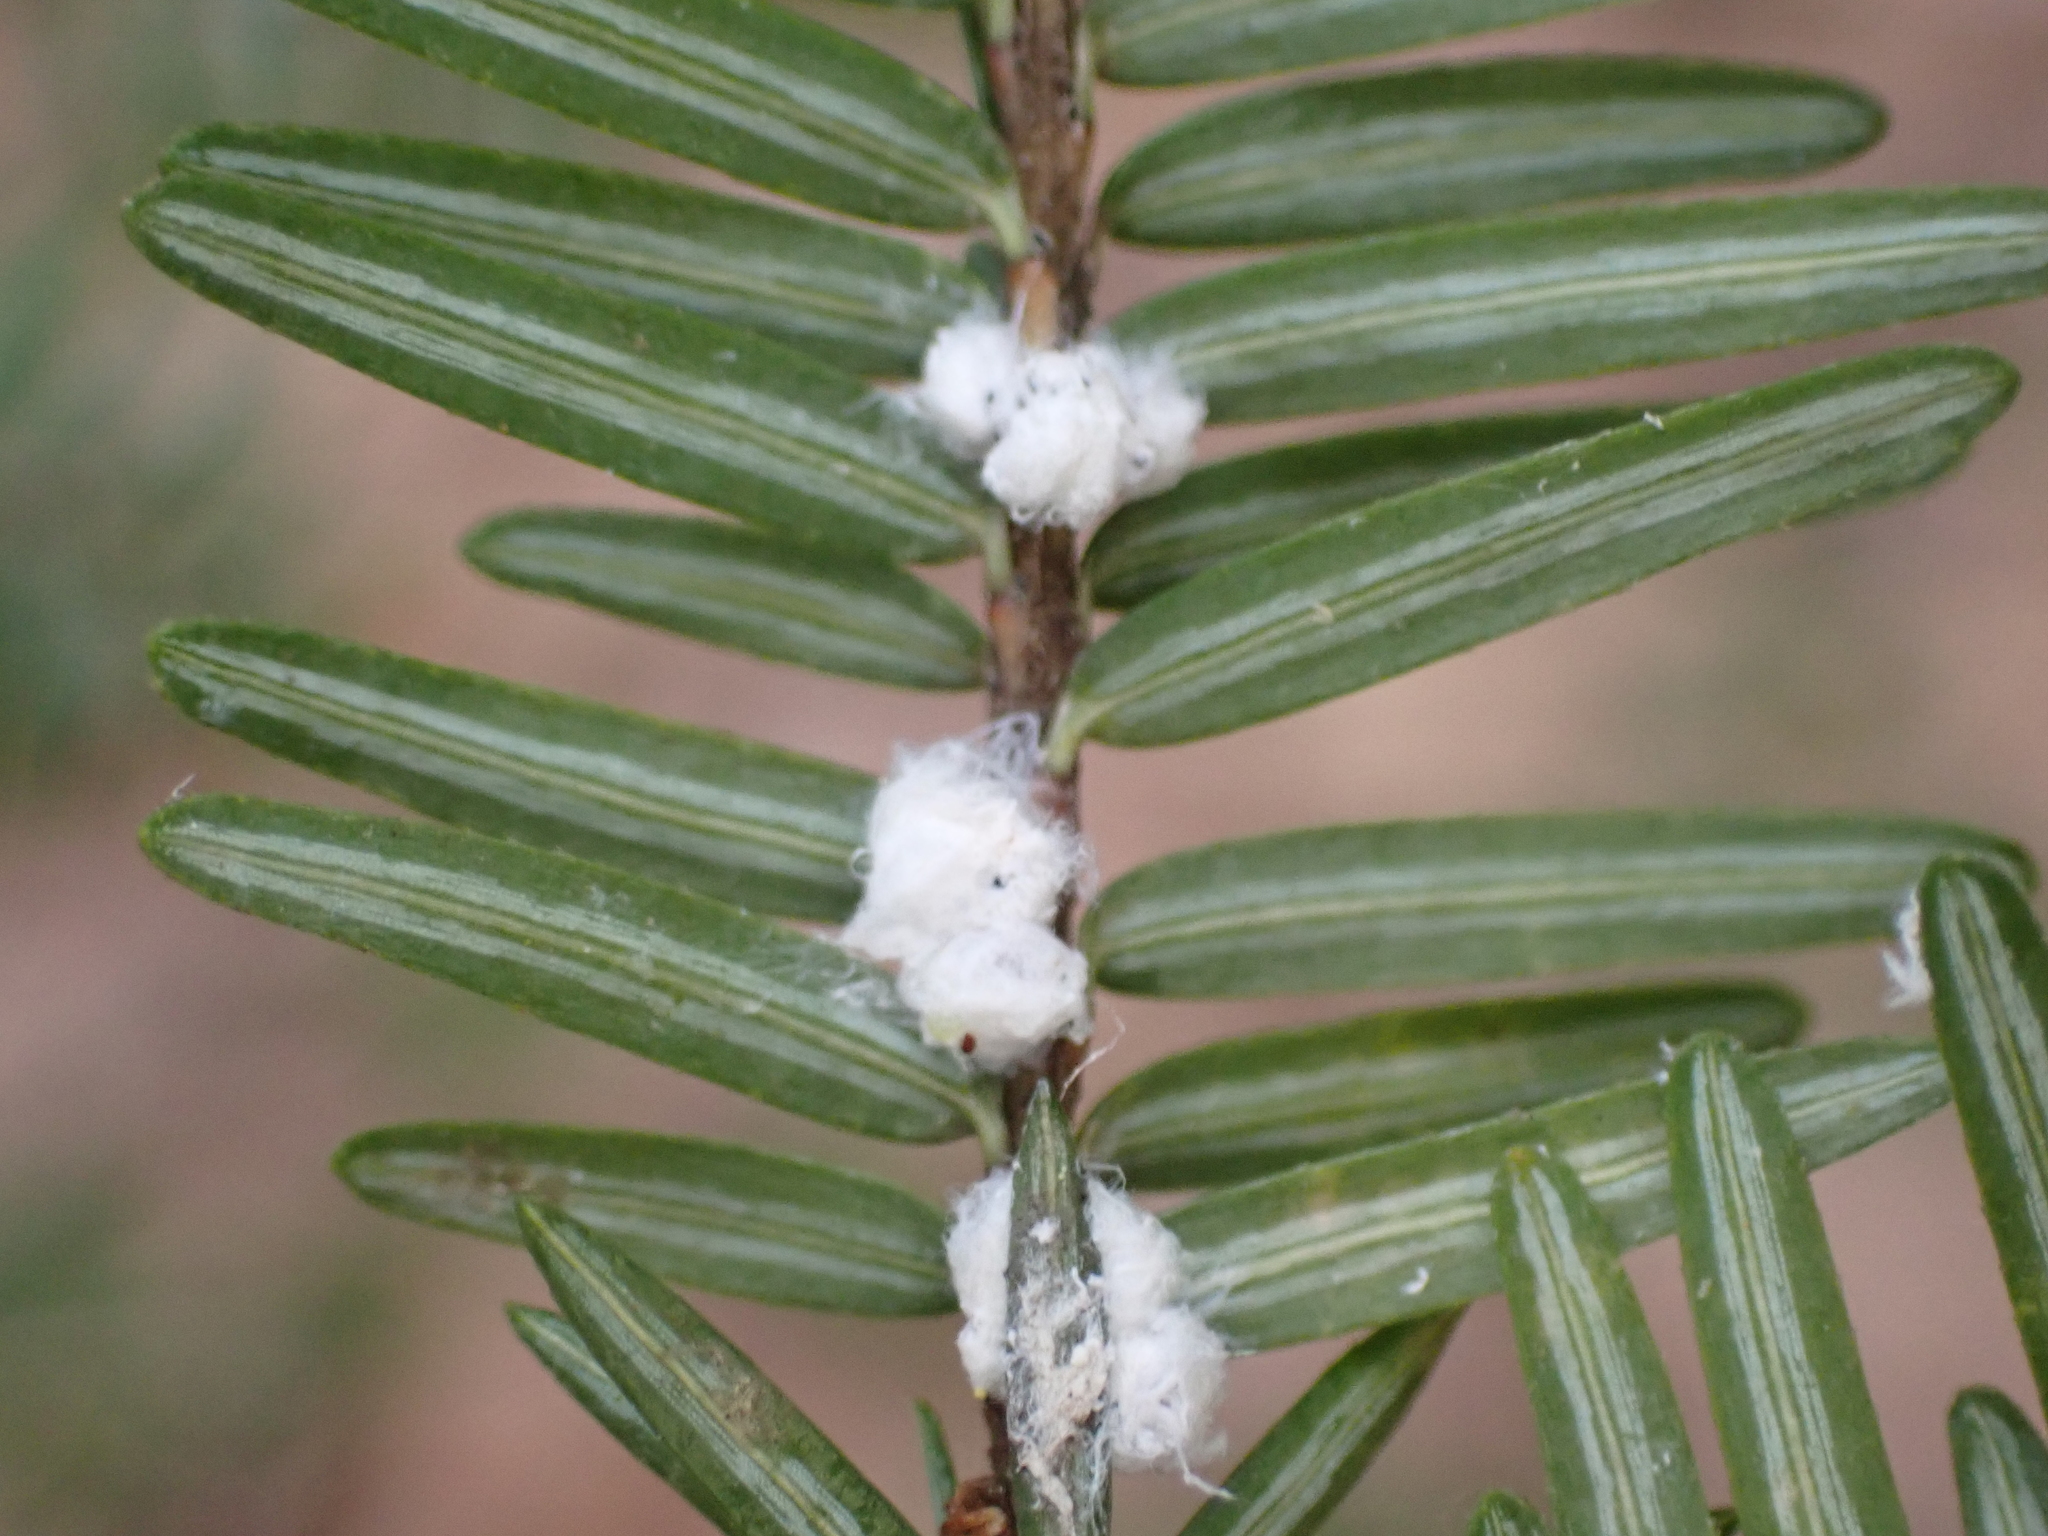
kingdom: Animalia
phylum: Arthropoda
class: Insecta
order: Hemiptera
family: Adelgidae
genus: Adelges
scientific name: Adelges tsugae
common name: Hemlock woolly adelgid
